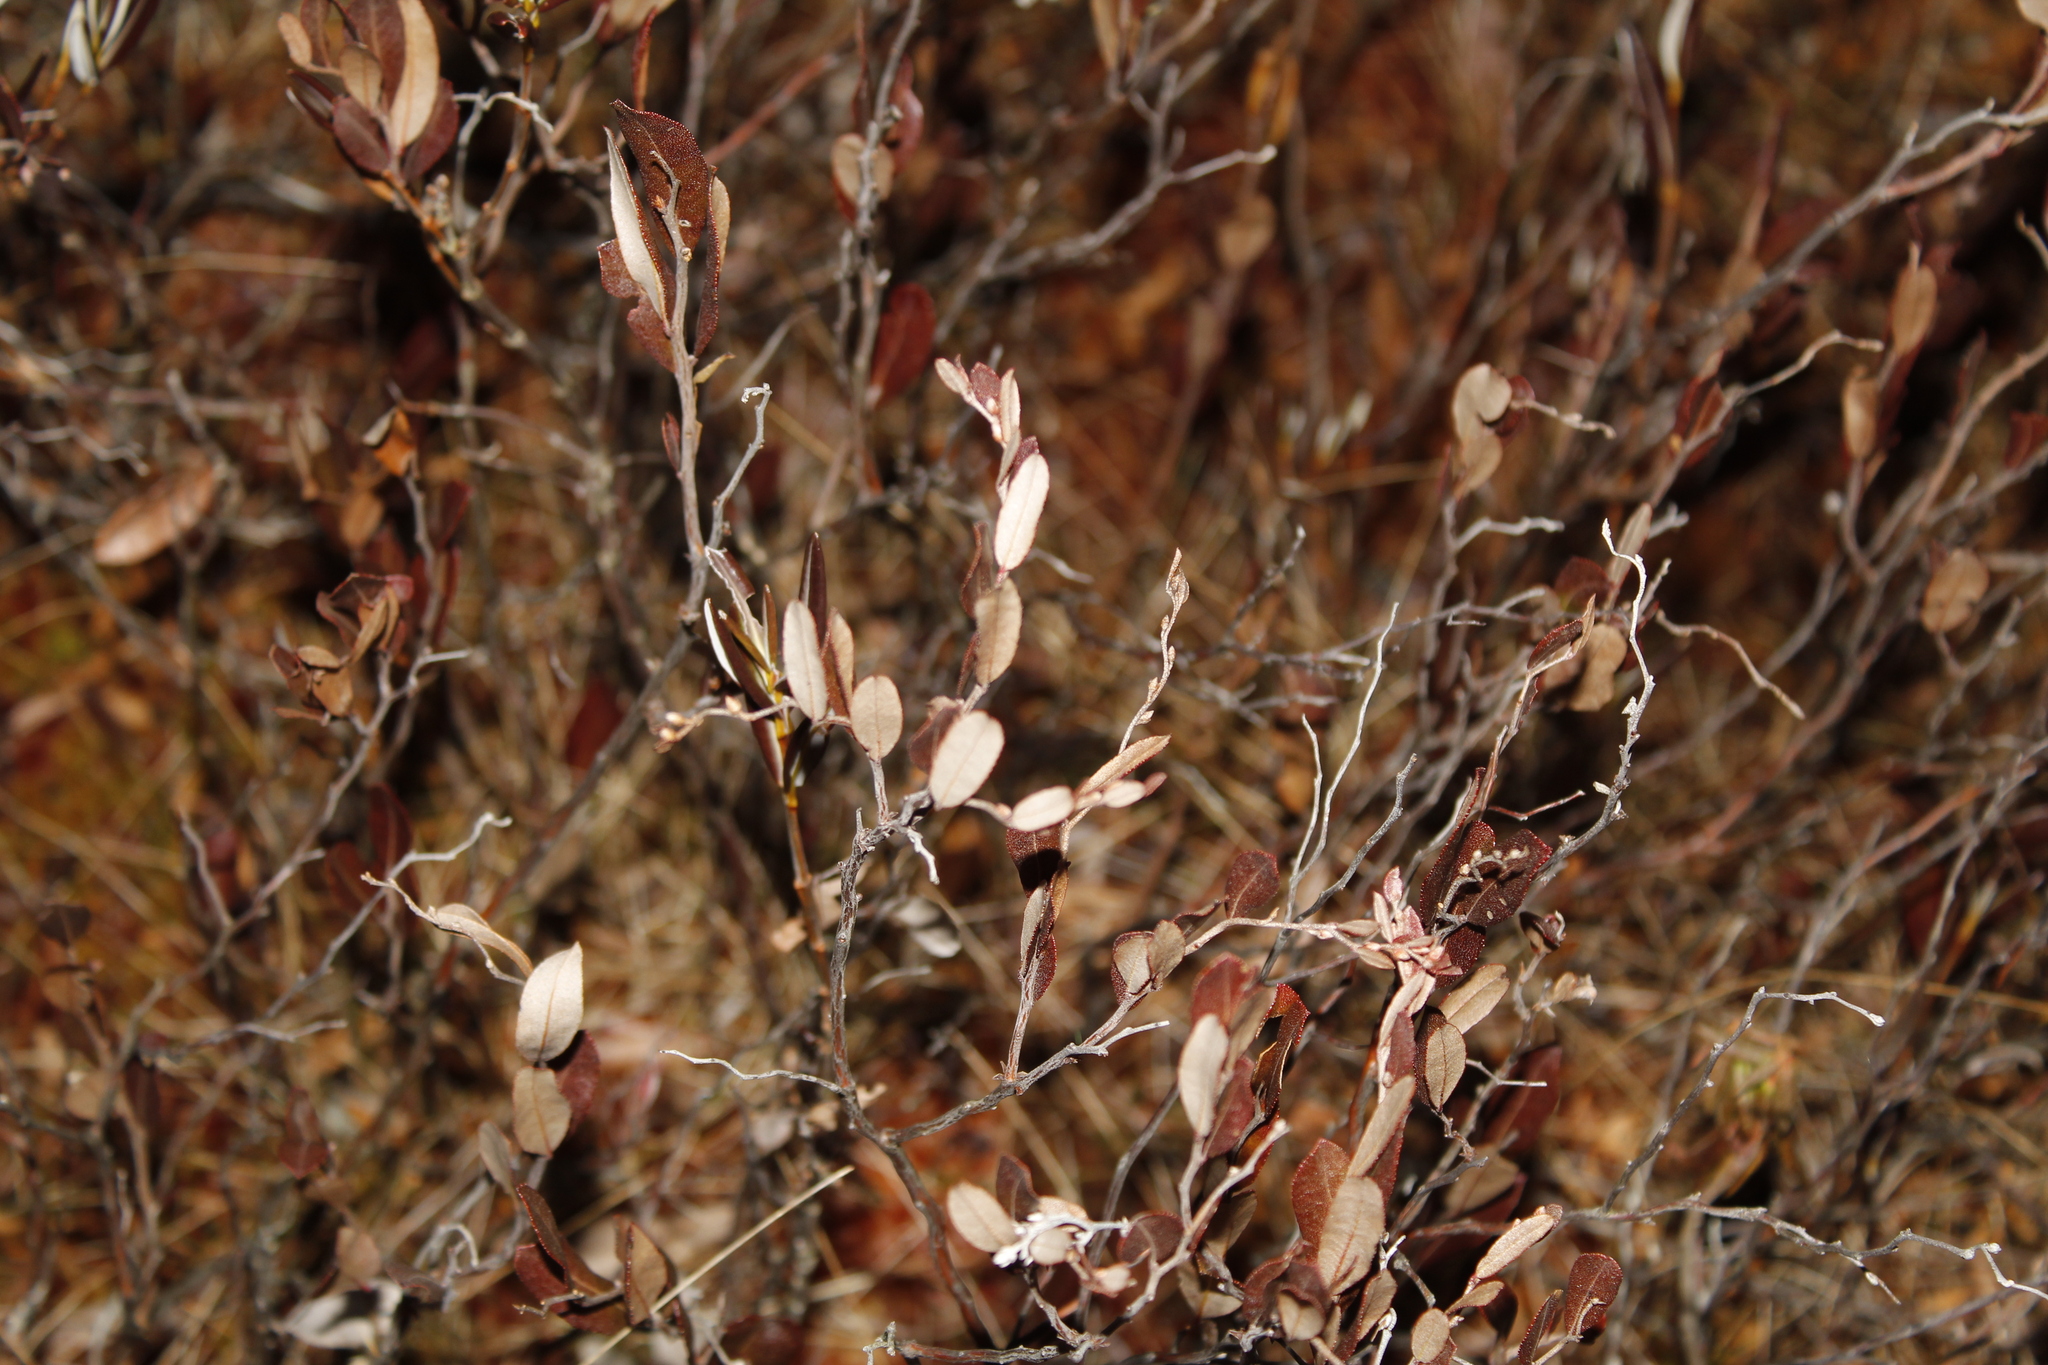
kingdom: Plantae
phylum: Tracheophyta
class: Magnoliopsida
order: Ericales
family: Ericaceae
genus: Chamaedaphne
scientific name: Chamaedaphne calyculata
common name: Leatherleaf
